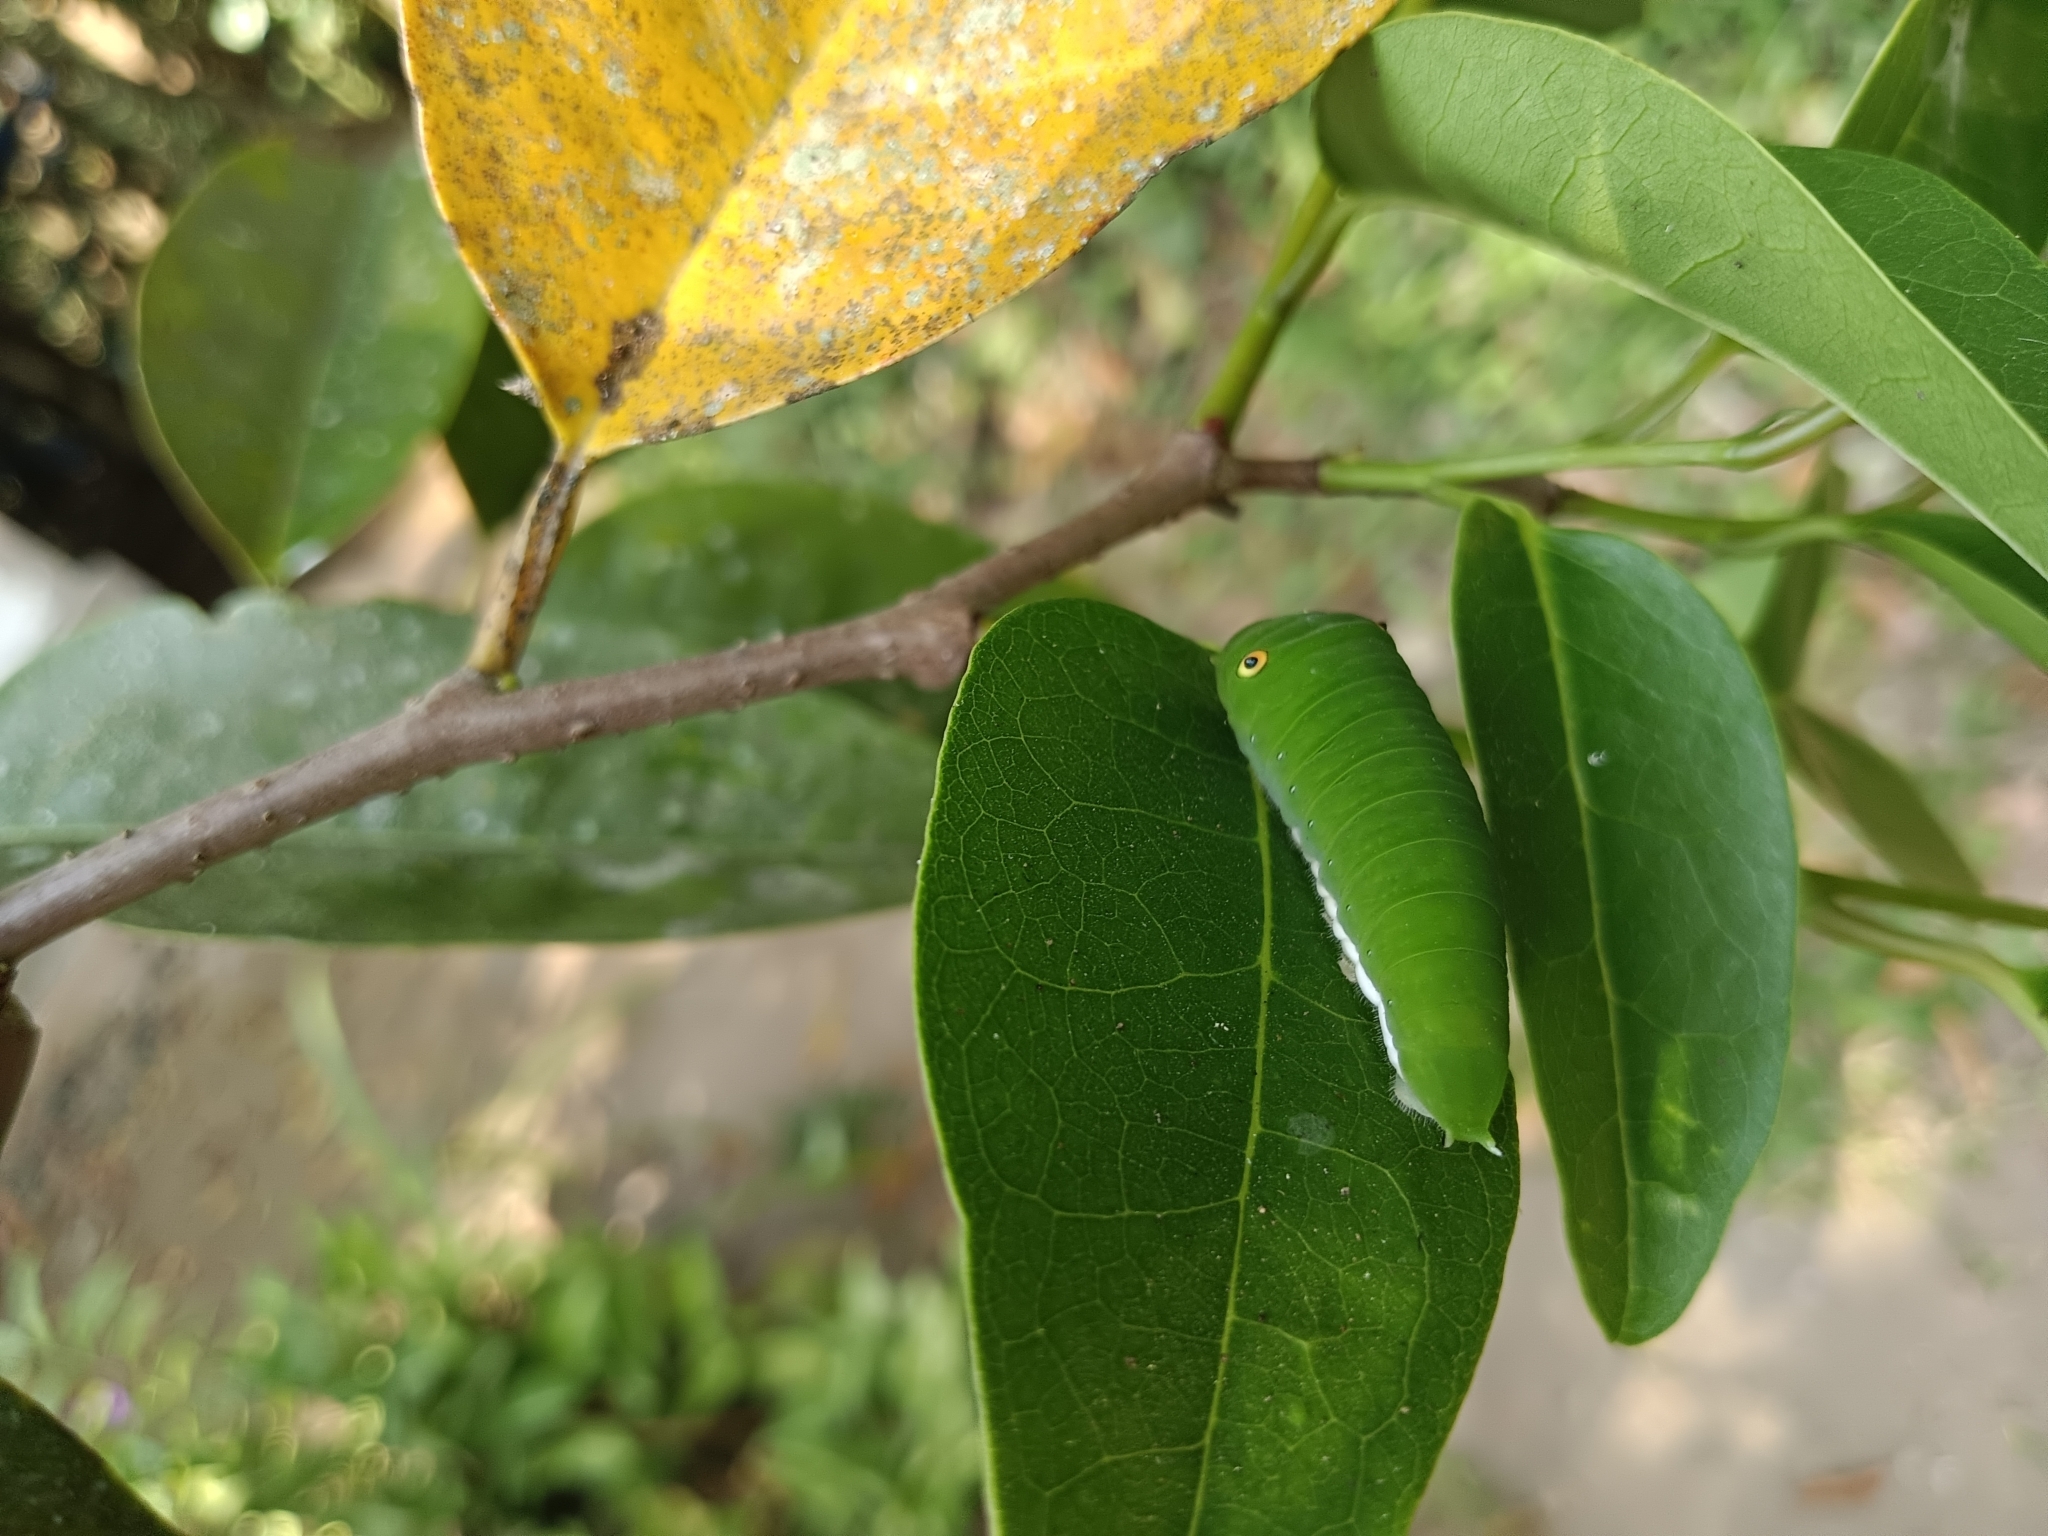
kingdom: Animalia
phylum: Arthropoda
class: Insecta
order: Lepidoptera
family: Papilionidae
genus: Graphium
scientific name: Graphium doson
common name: Common jay
